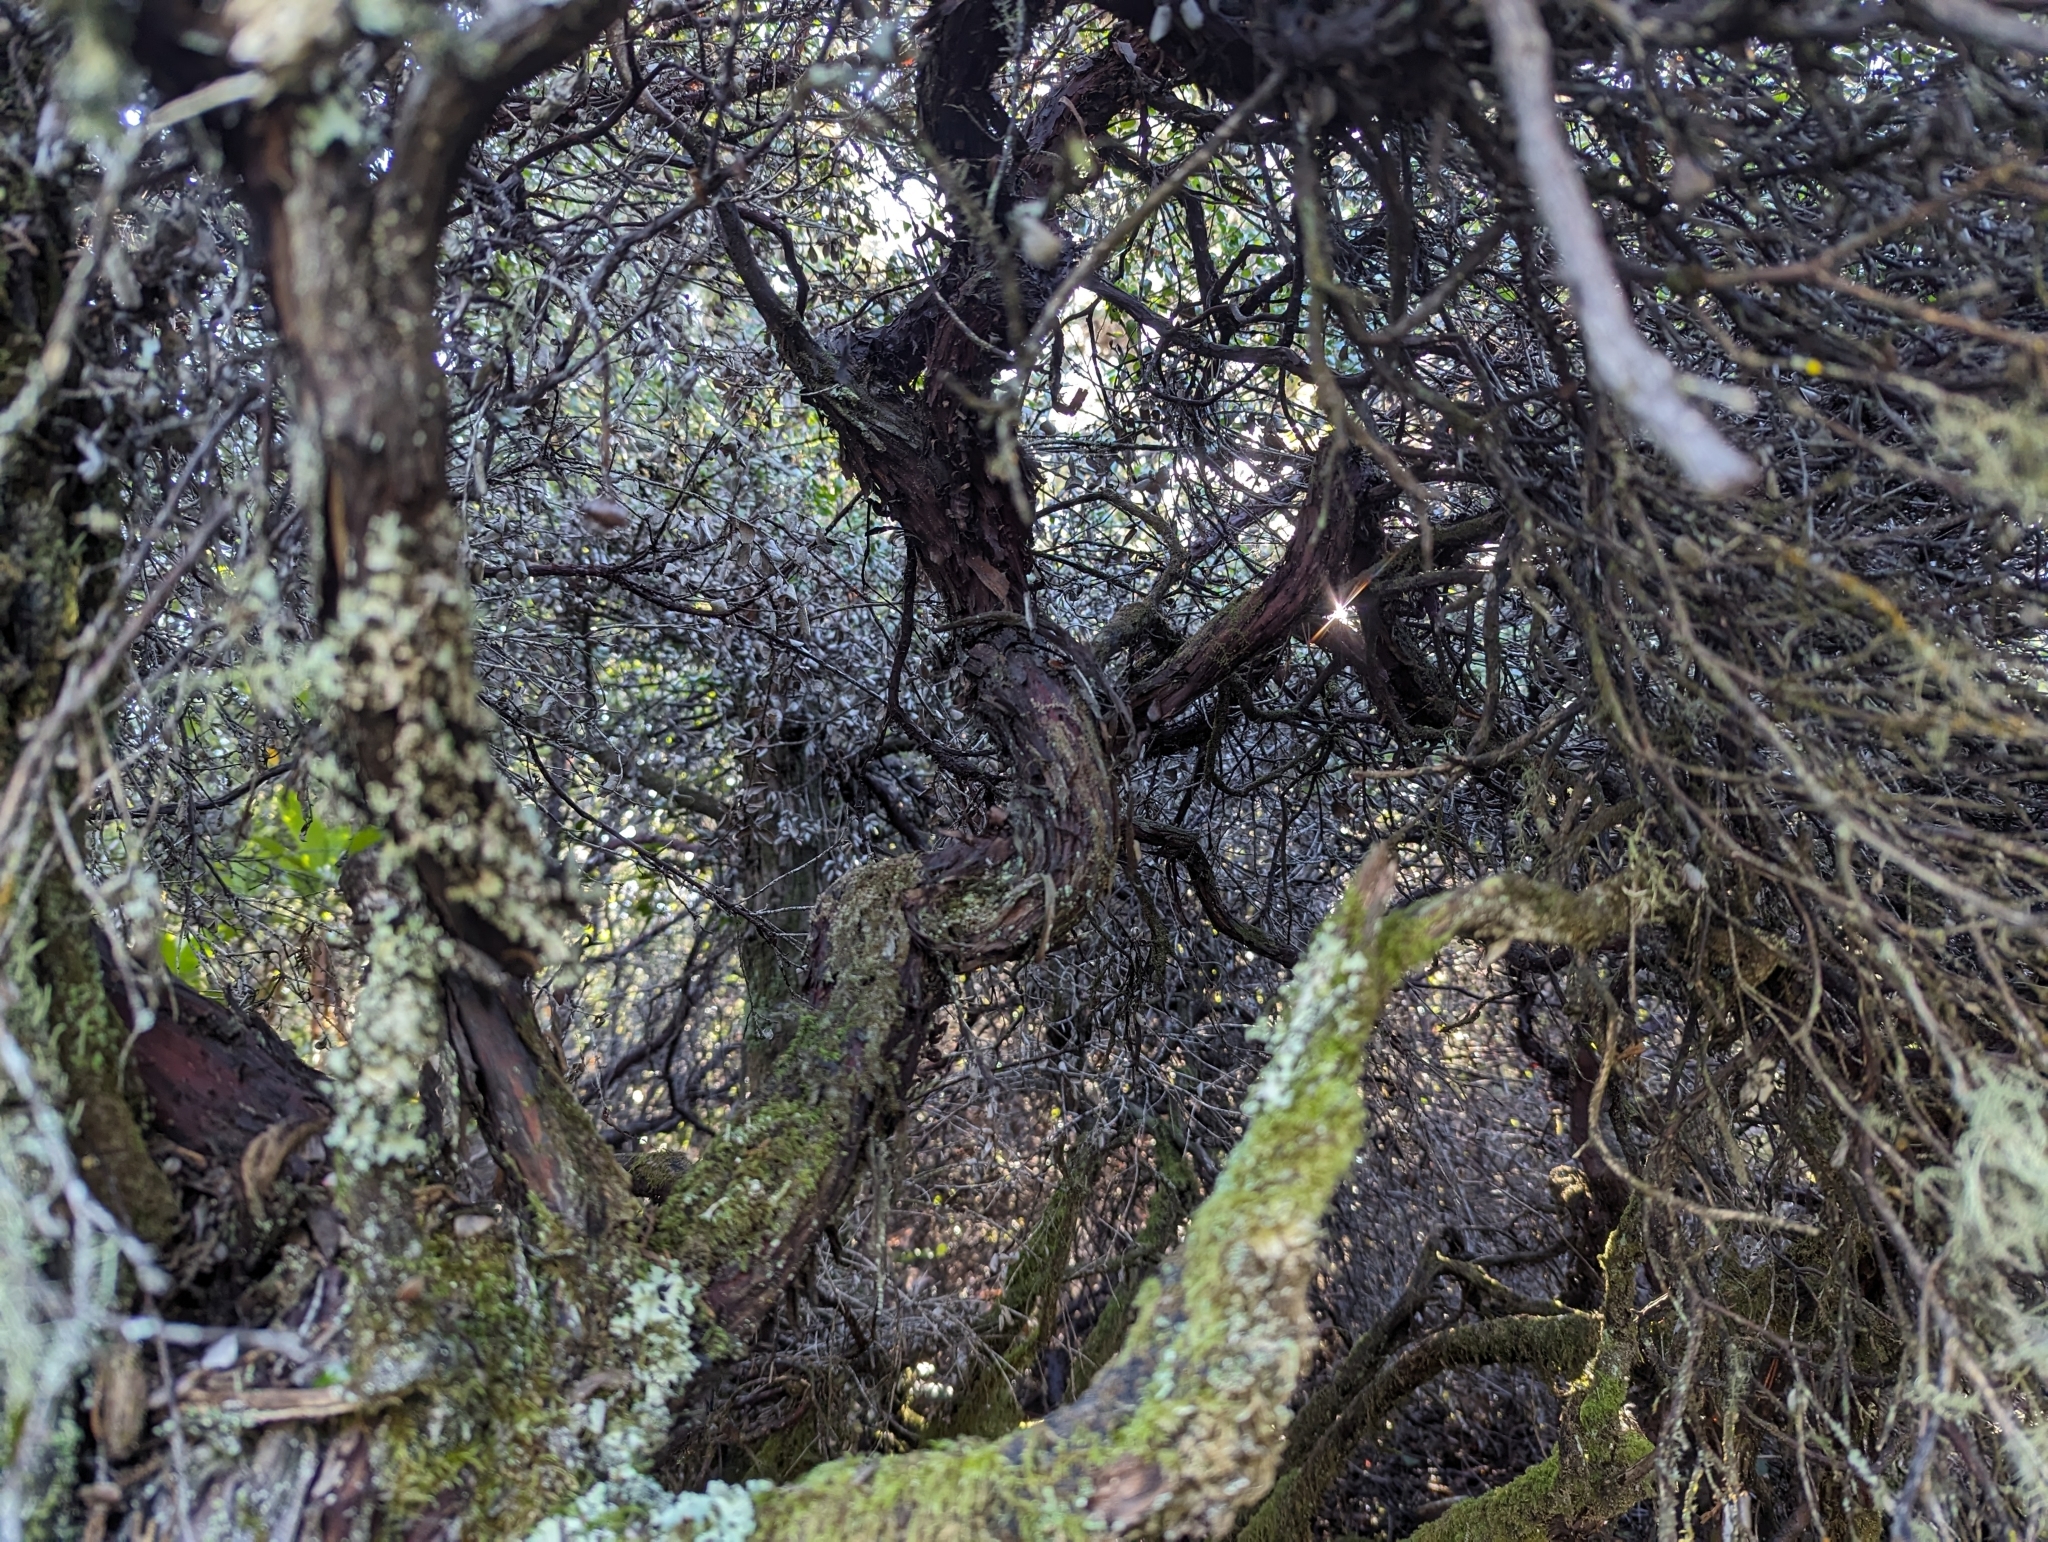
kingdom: Plantae
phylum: Tracheophyta
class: Magnoliopsida
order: Ericales
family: Ericaceae
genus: Arctostaphylos
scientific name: Arctostaphylos nummularia
